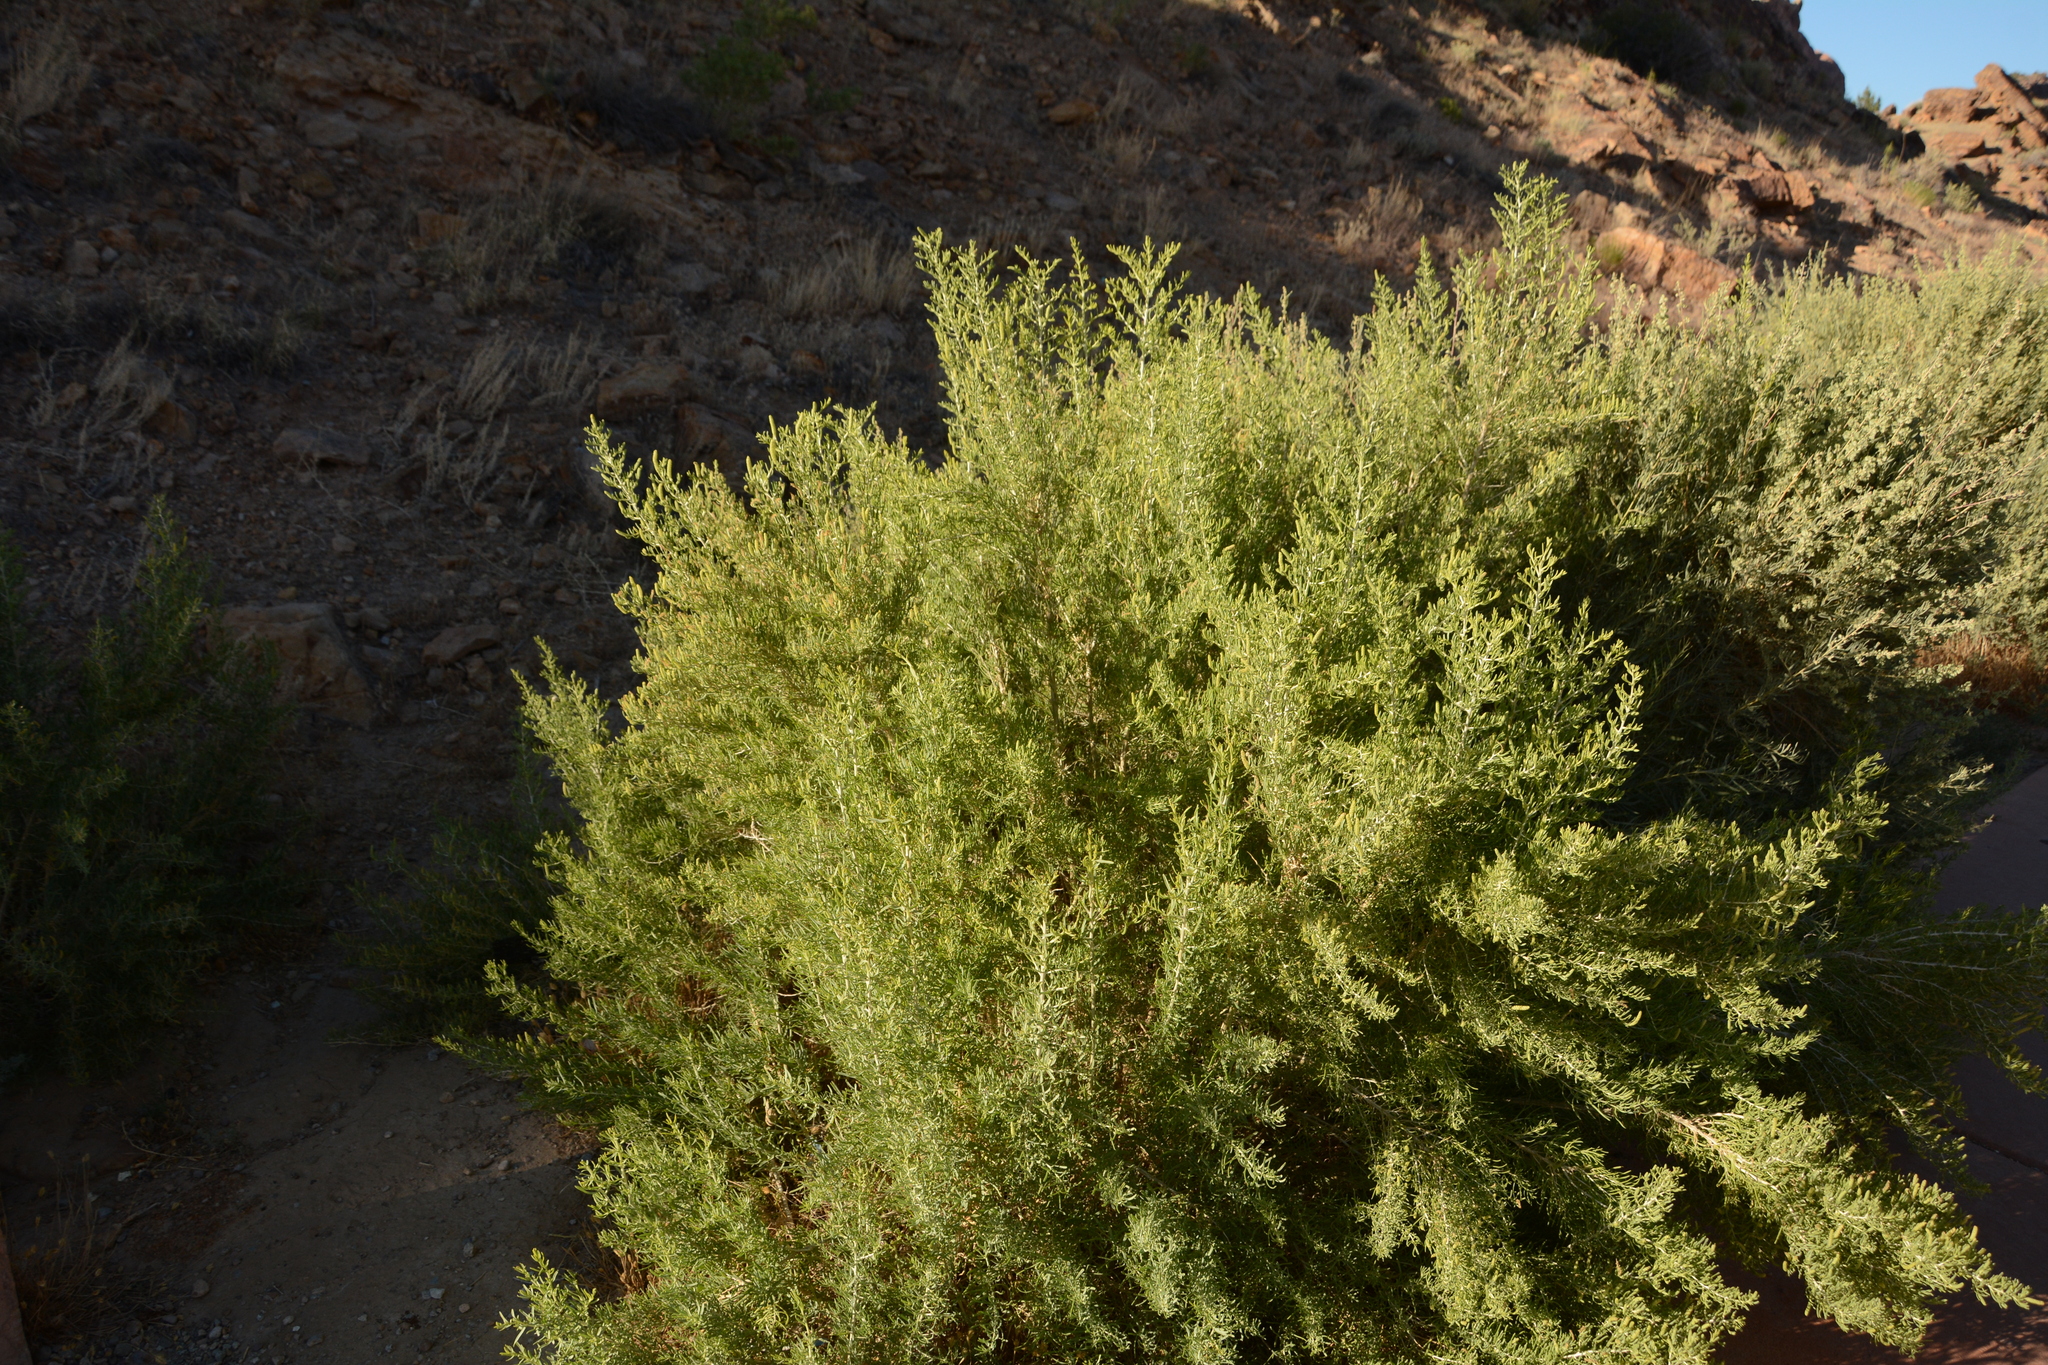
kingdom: Plantae
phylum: Tracheophyta
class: Magnoliopsida
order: Caryophyllales
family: Sarcobataceae
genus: Sarcobatus
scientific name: Sarcobatus vermiculatus
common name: Greasewood
